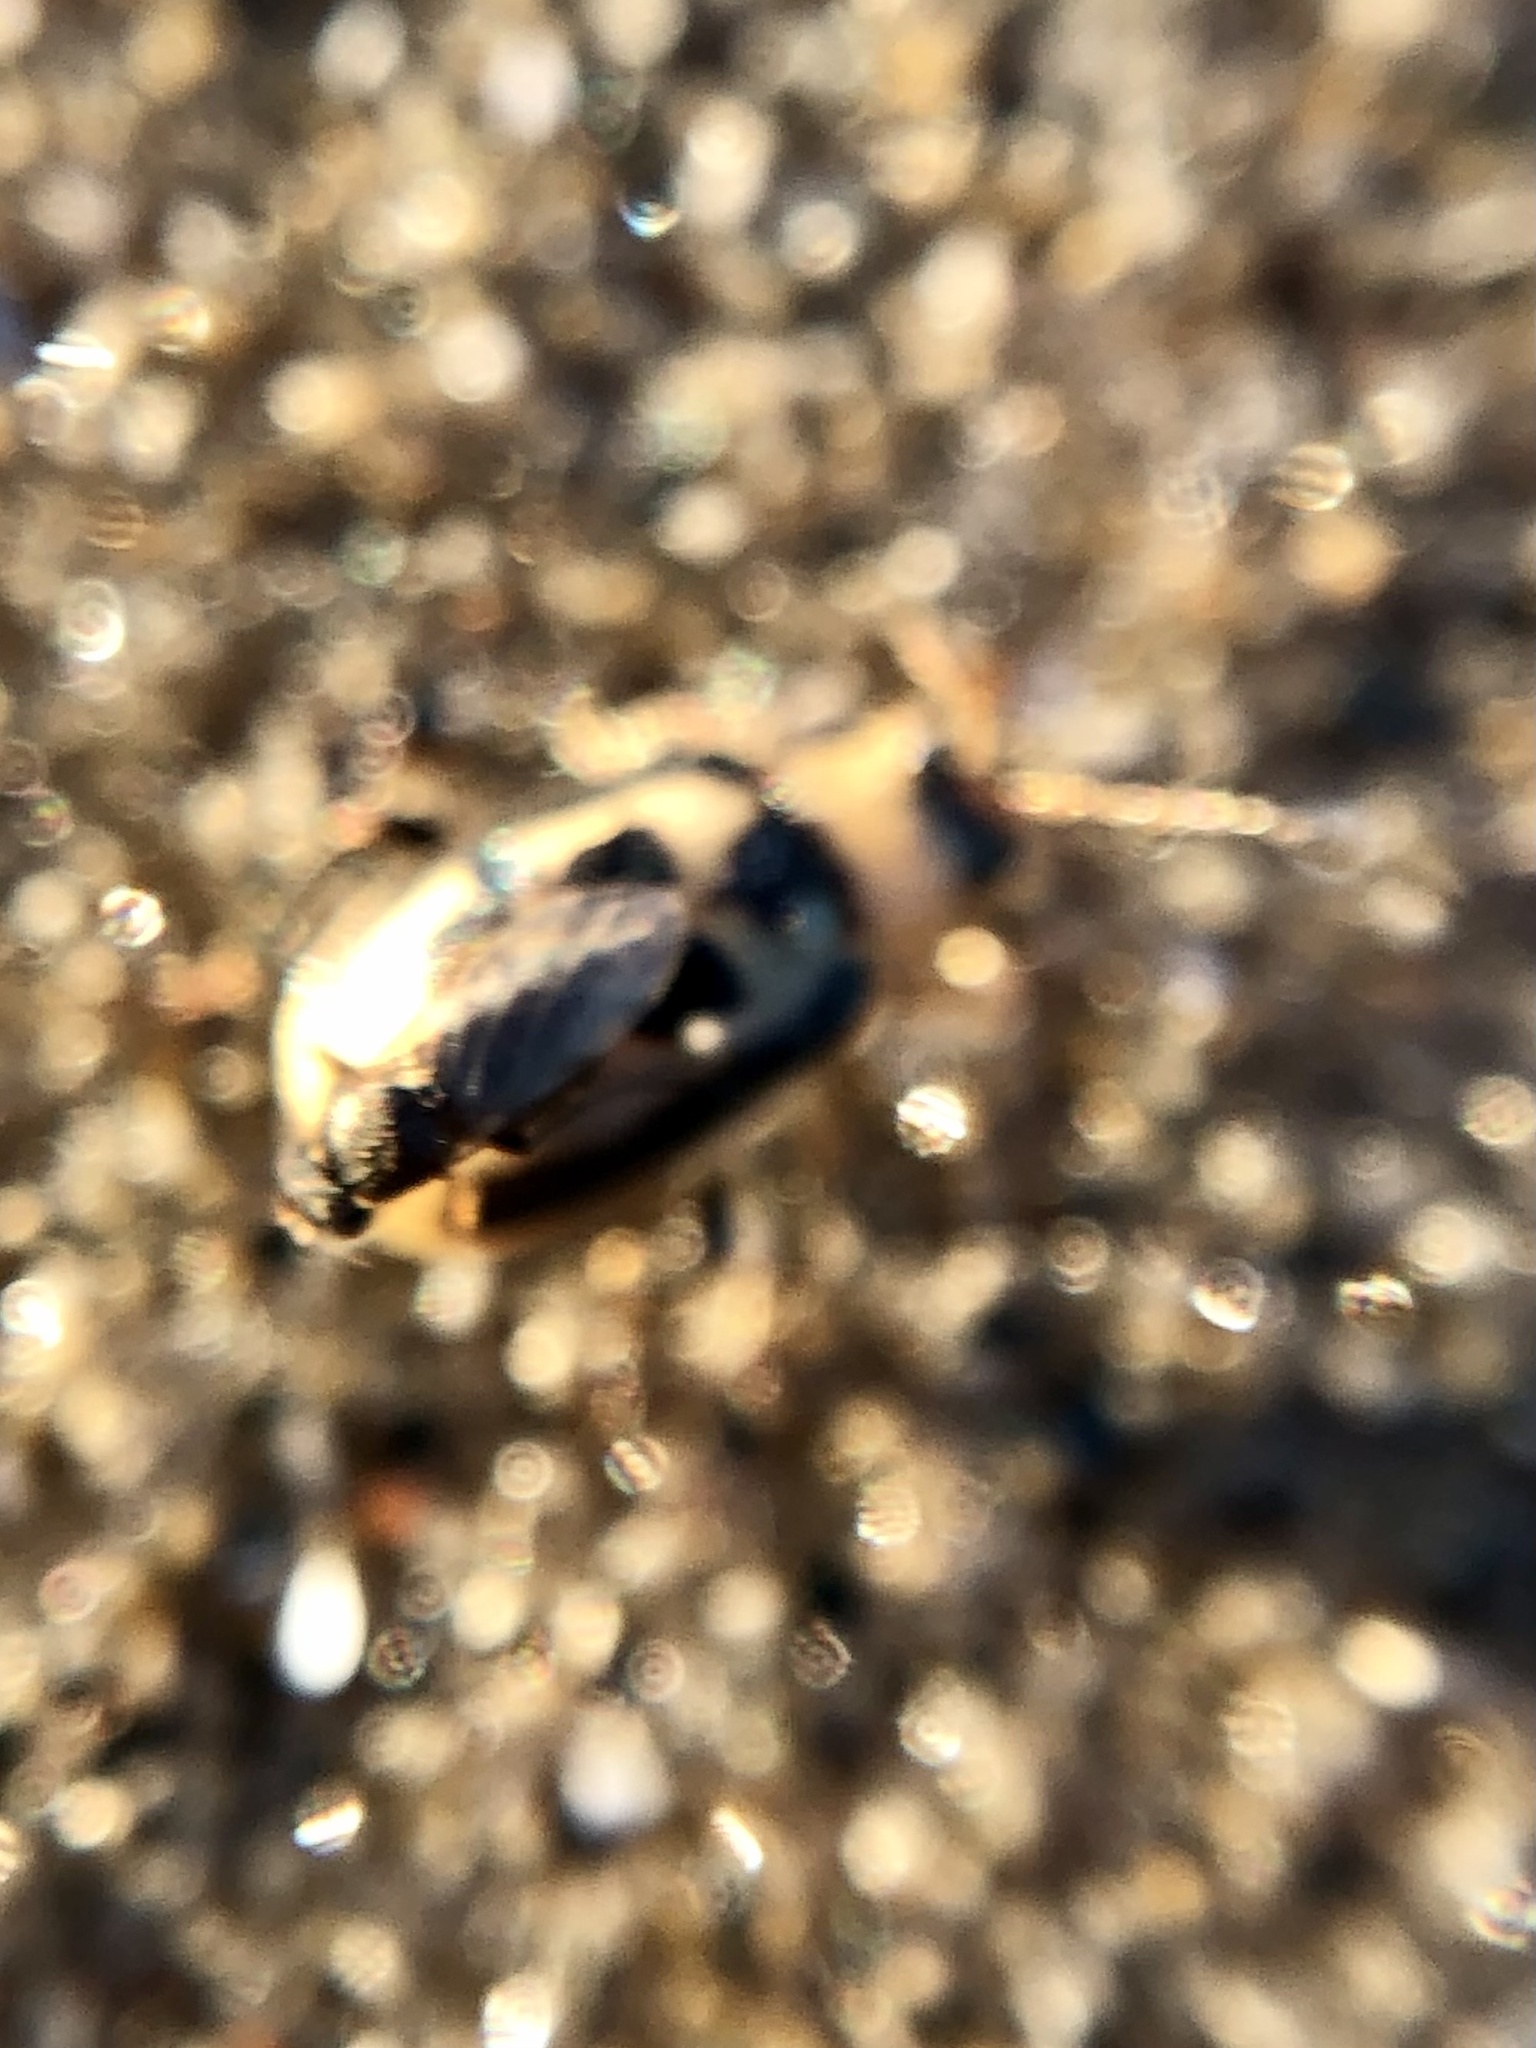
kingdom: Animalia
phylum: Arthropoda
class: Insecta
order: Coleoptera
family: Chrysomelidae
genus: Cerotoma
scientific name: Cerotoma trifurcata
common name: Bean leaf beetle
